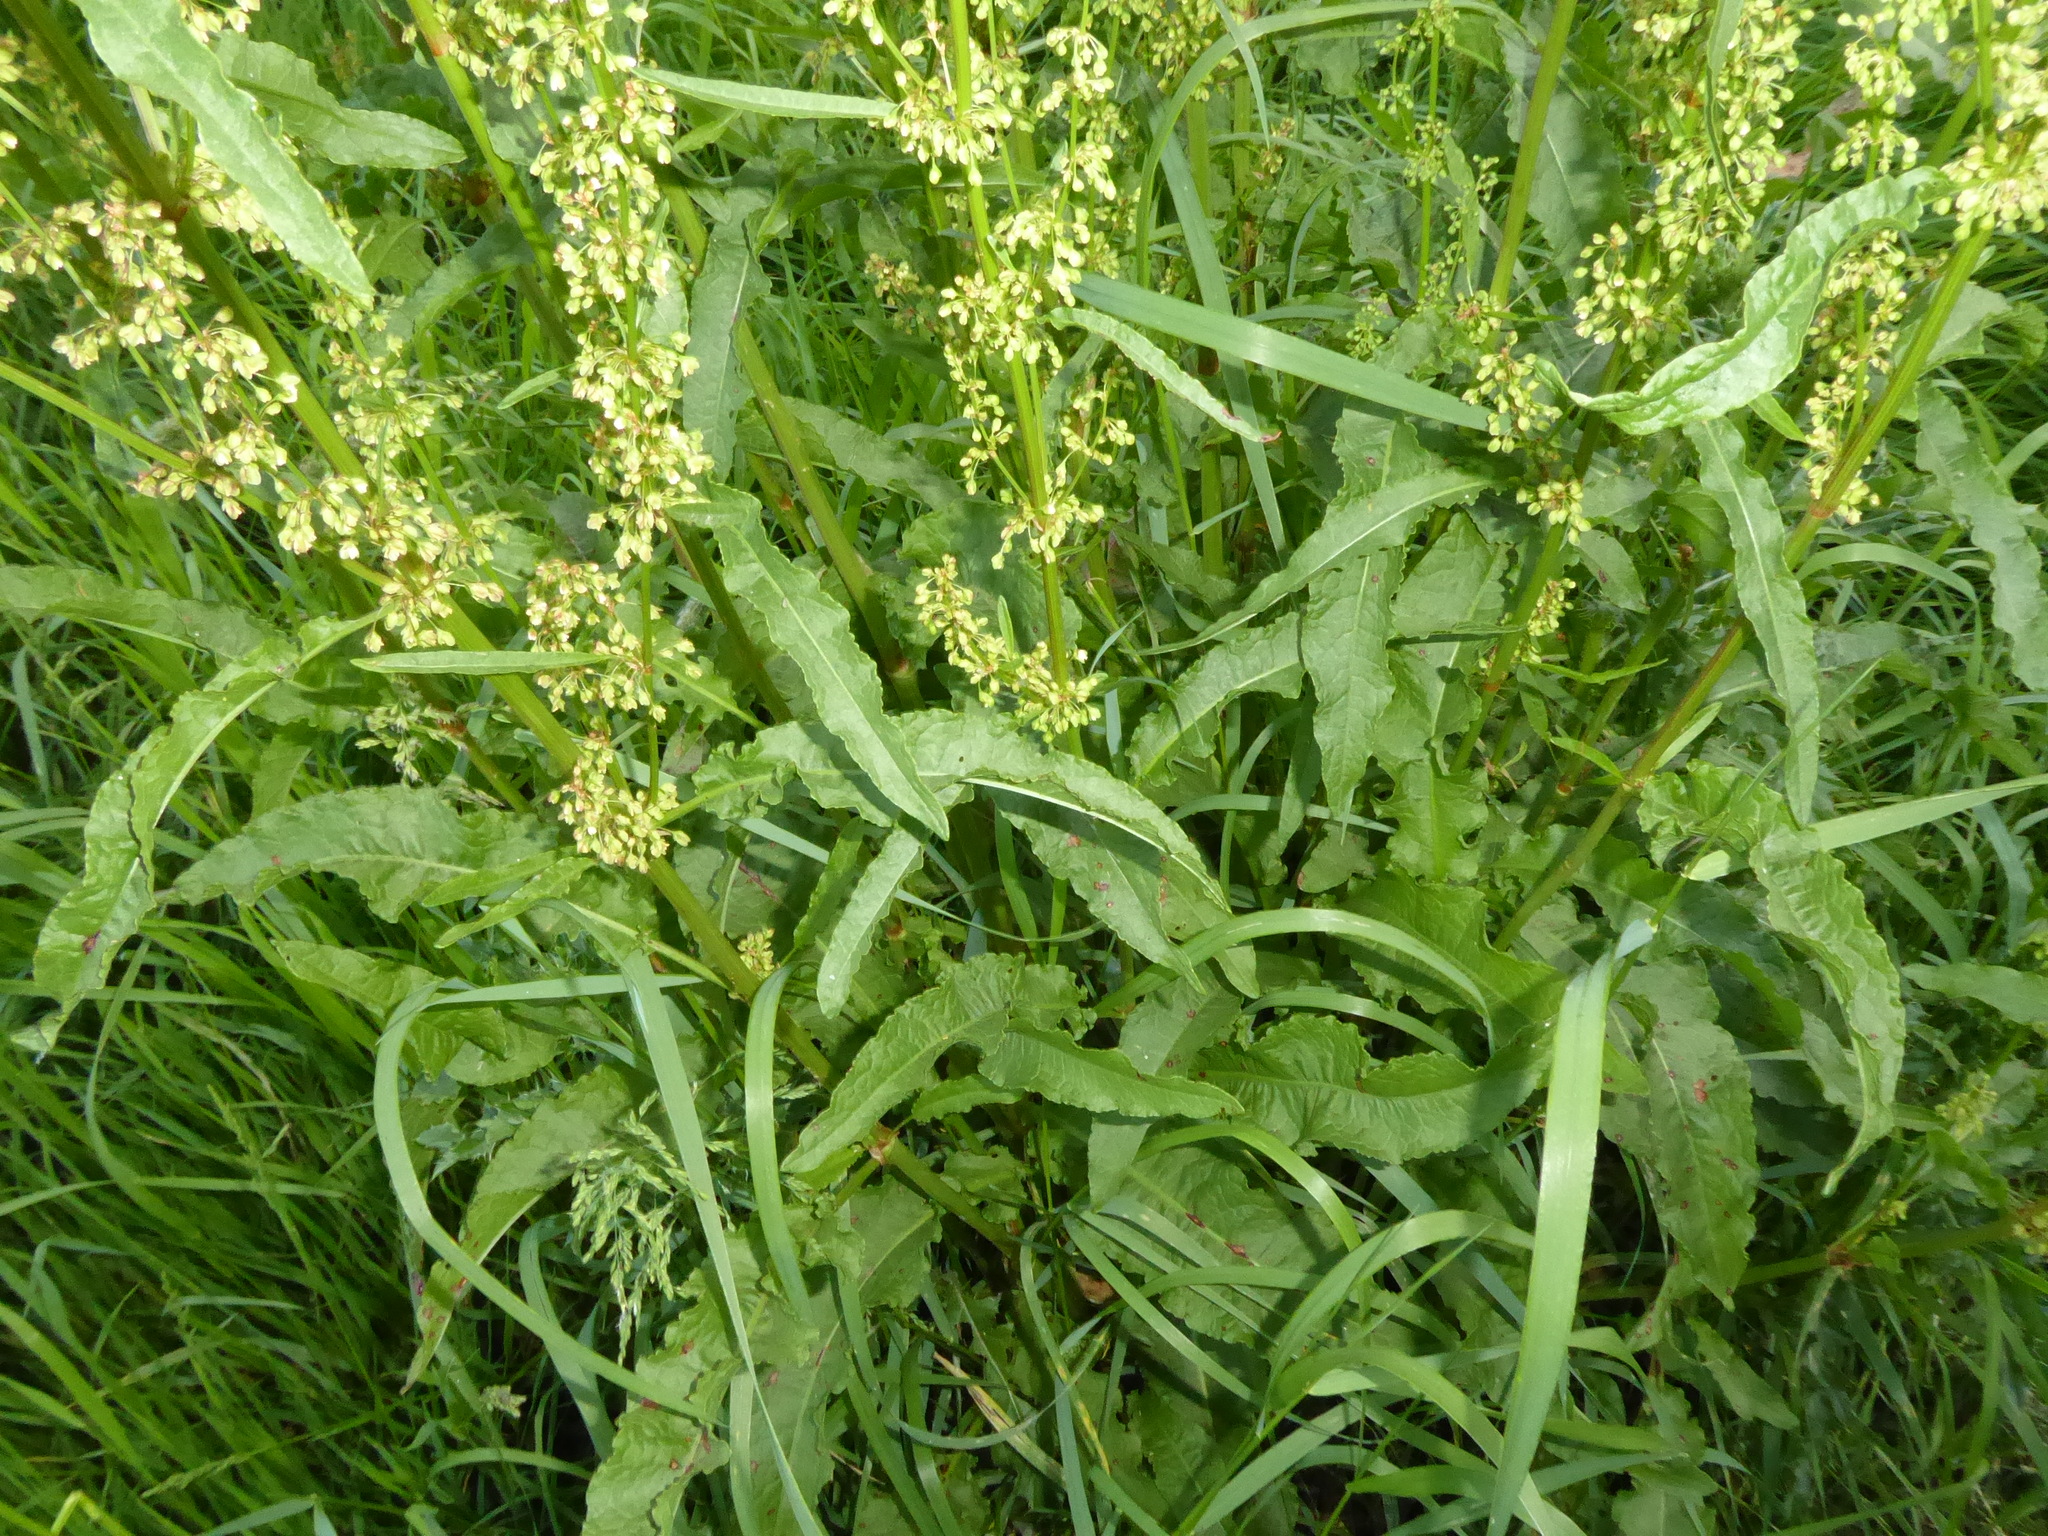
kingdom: Plantae
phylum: Tracheophyta
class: Magnoliopsida
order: Caryophyllales
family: Polygonaceae
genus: Rumex
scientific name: Rumex crispus
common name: Curled dock
